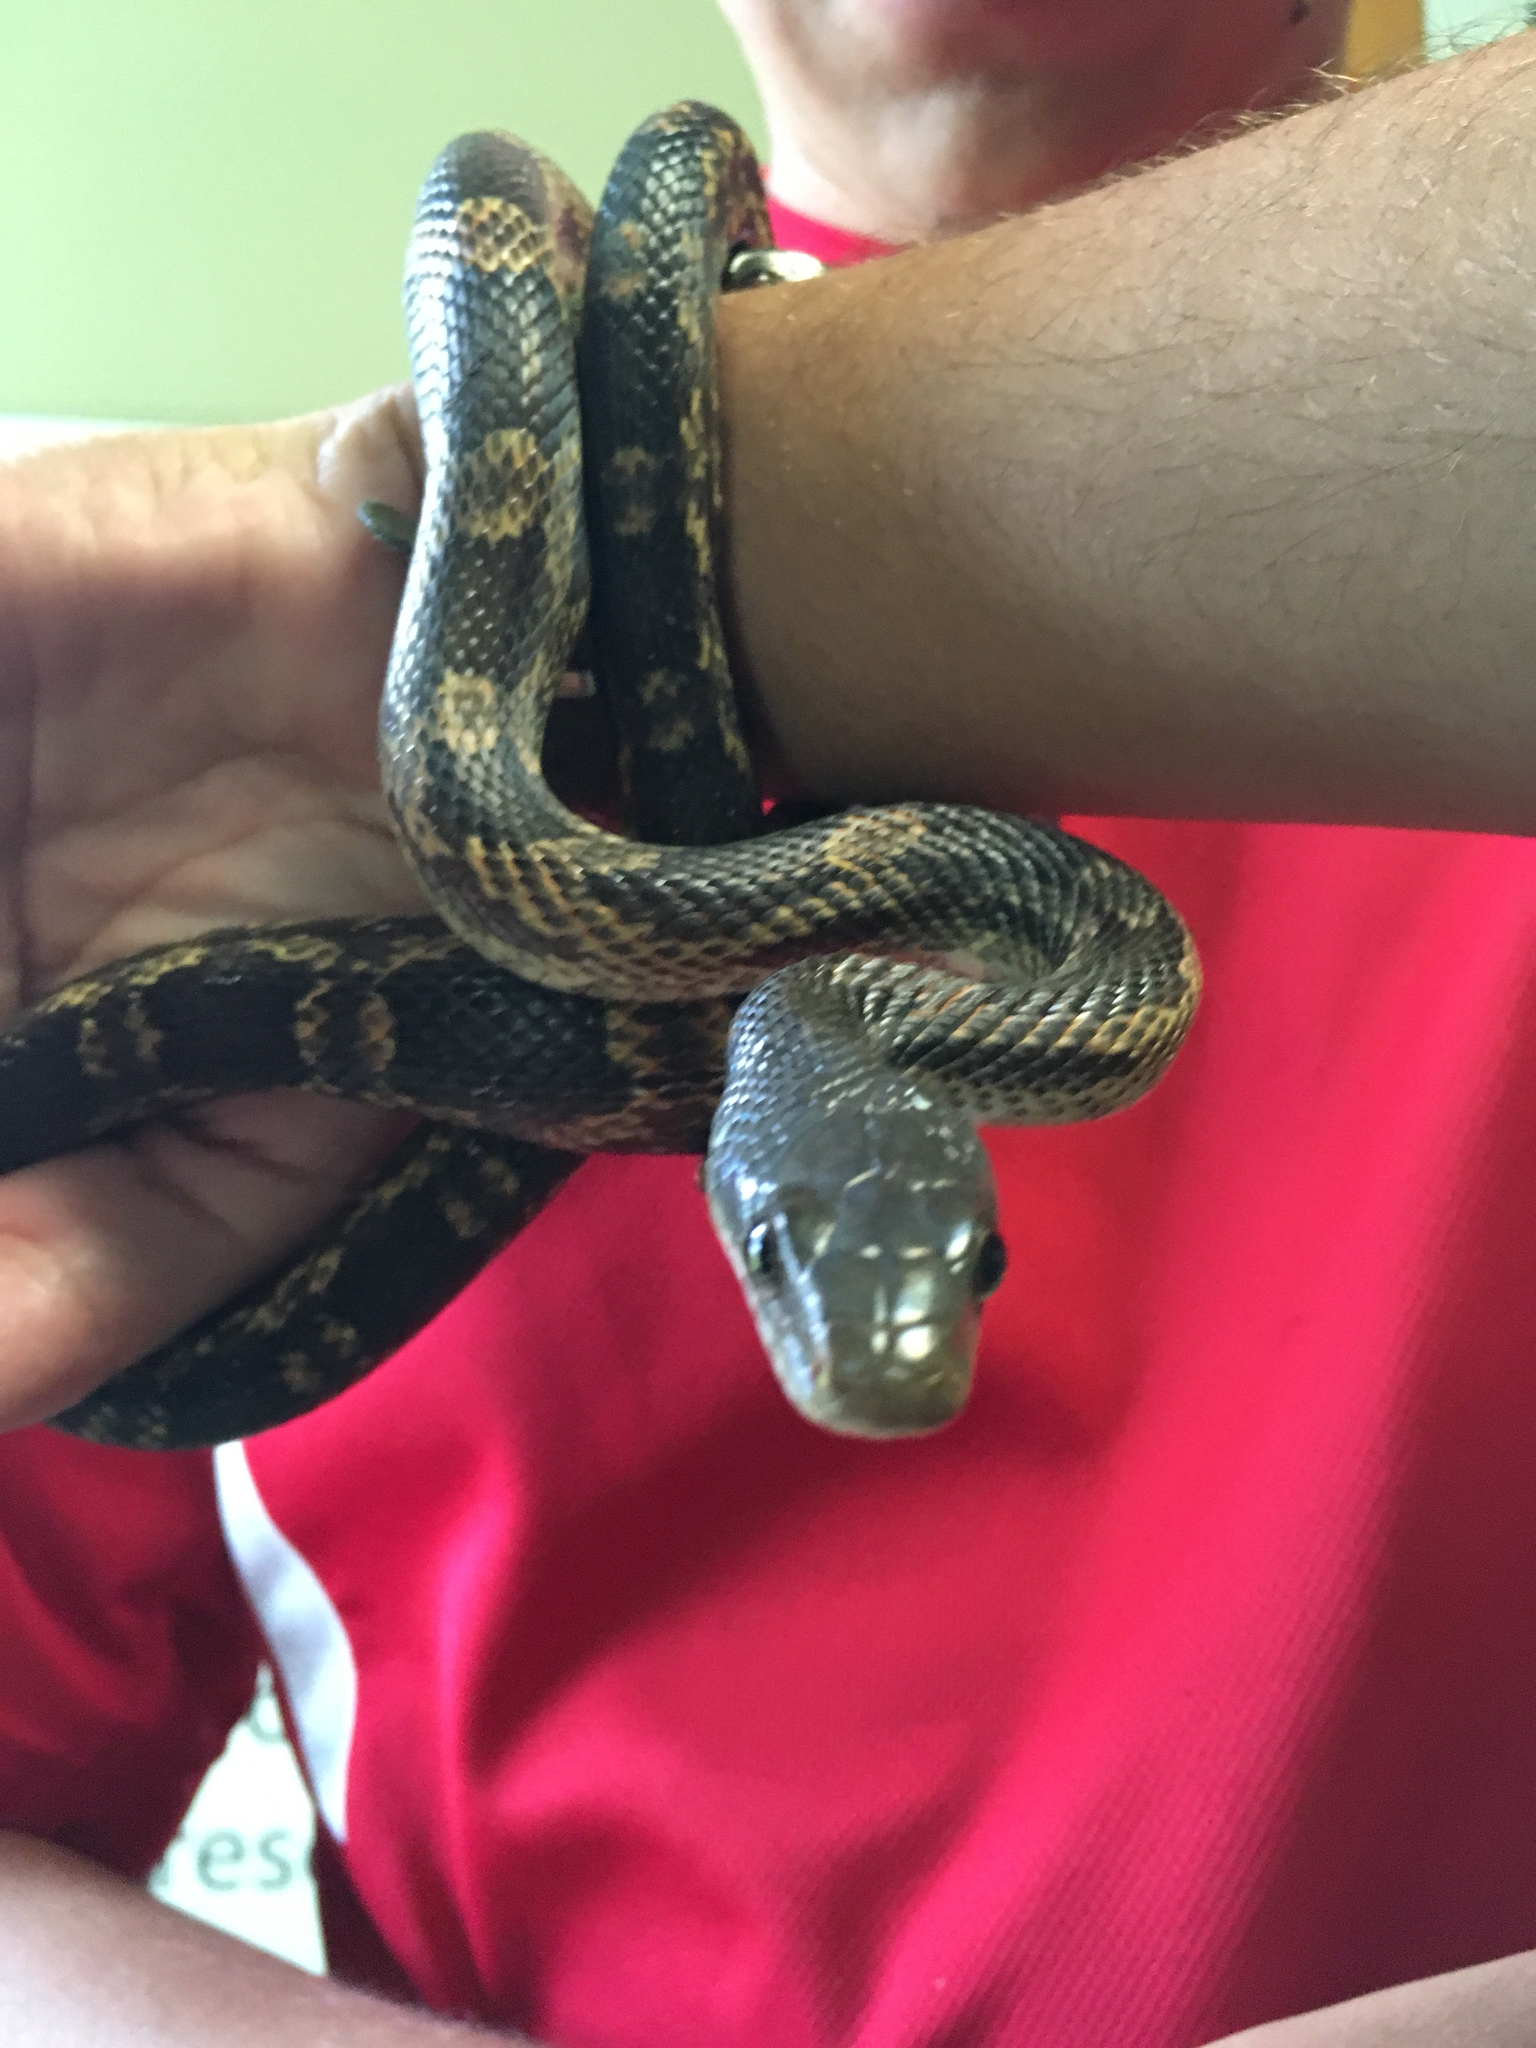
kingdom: Animalia
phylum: Chordata
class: Squamata
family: Colubridae
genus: Pantherophis
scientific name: Pantherophis obsoletus
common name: Black rat snake
